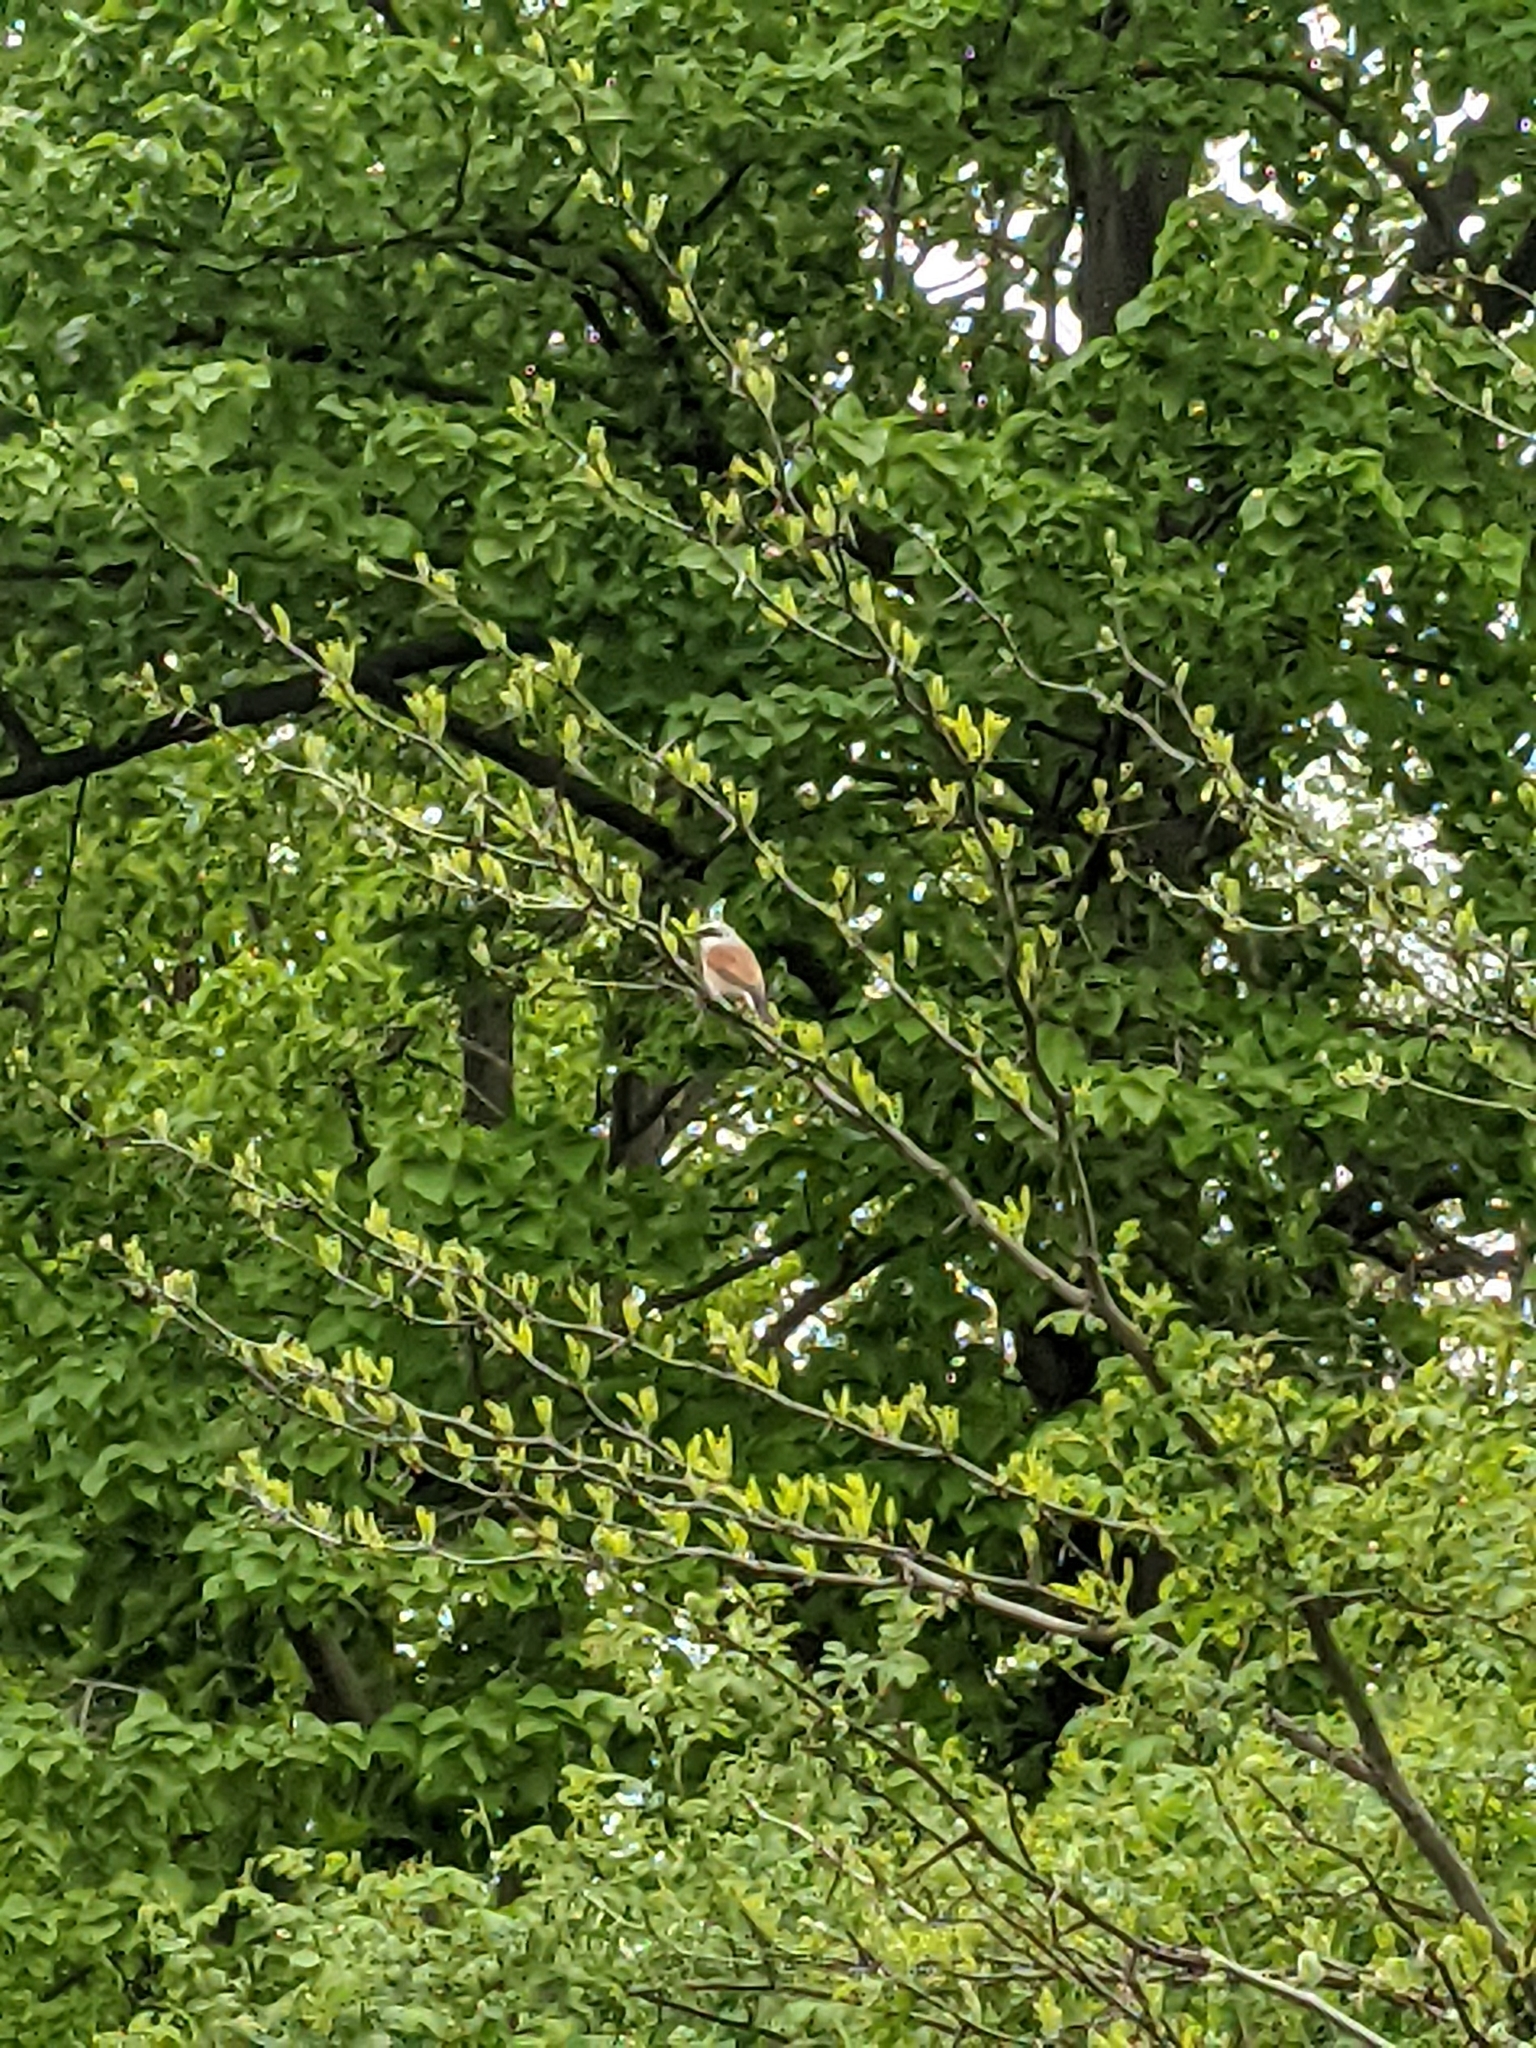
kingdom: Animalia
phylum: Chordata
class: Aves
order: Passeriformes
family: Laniidae
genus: Lanius
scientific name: Lanius collurio
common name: Red-backed shrike
